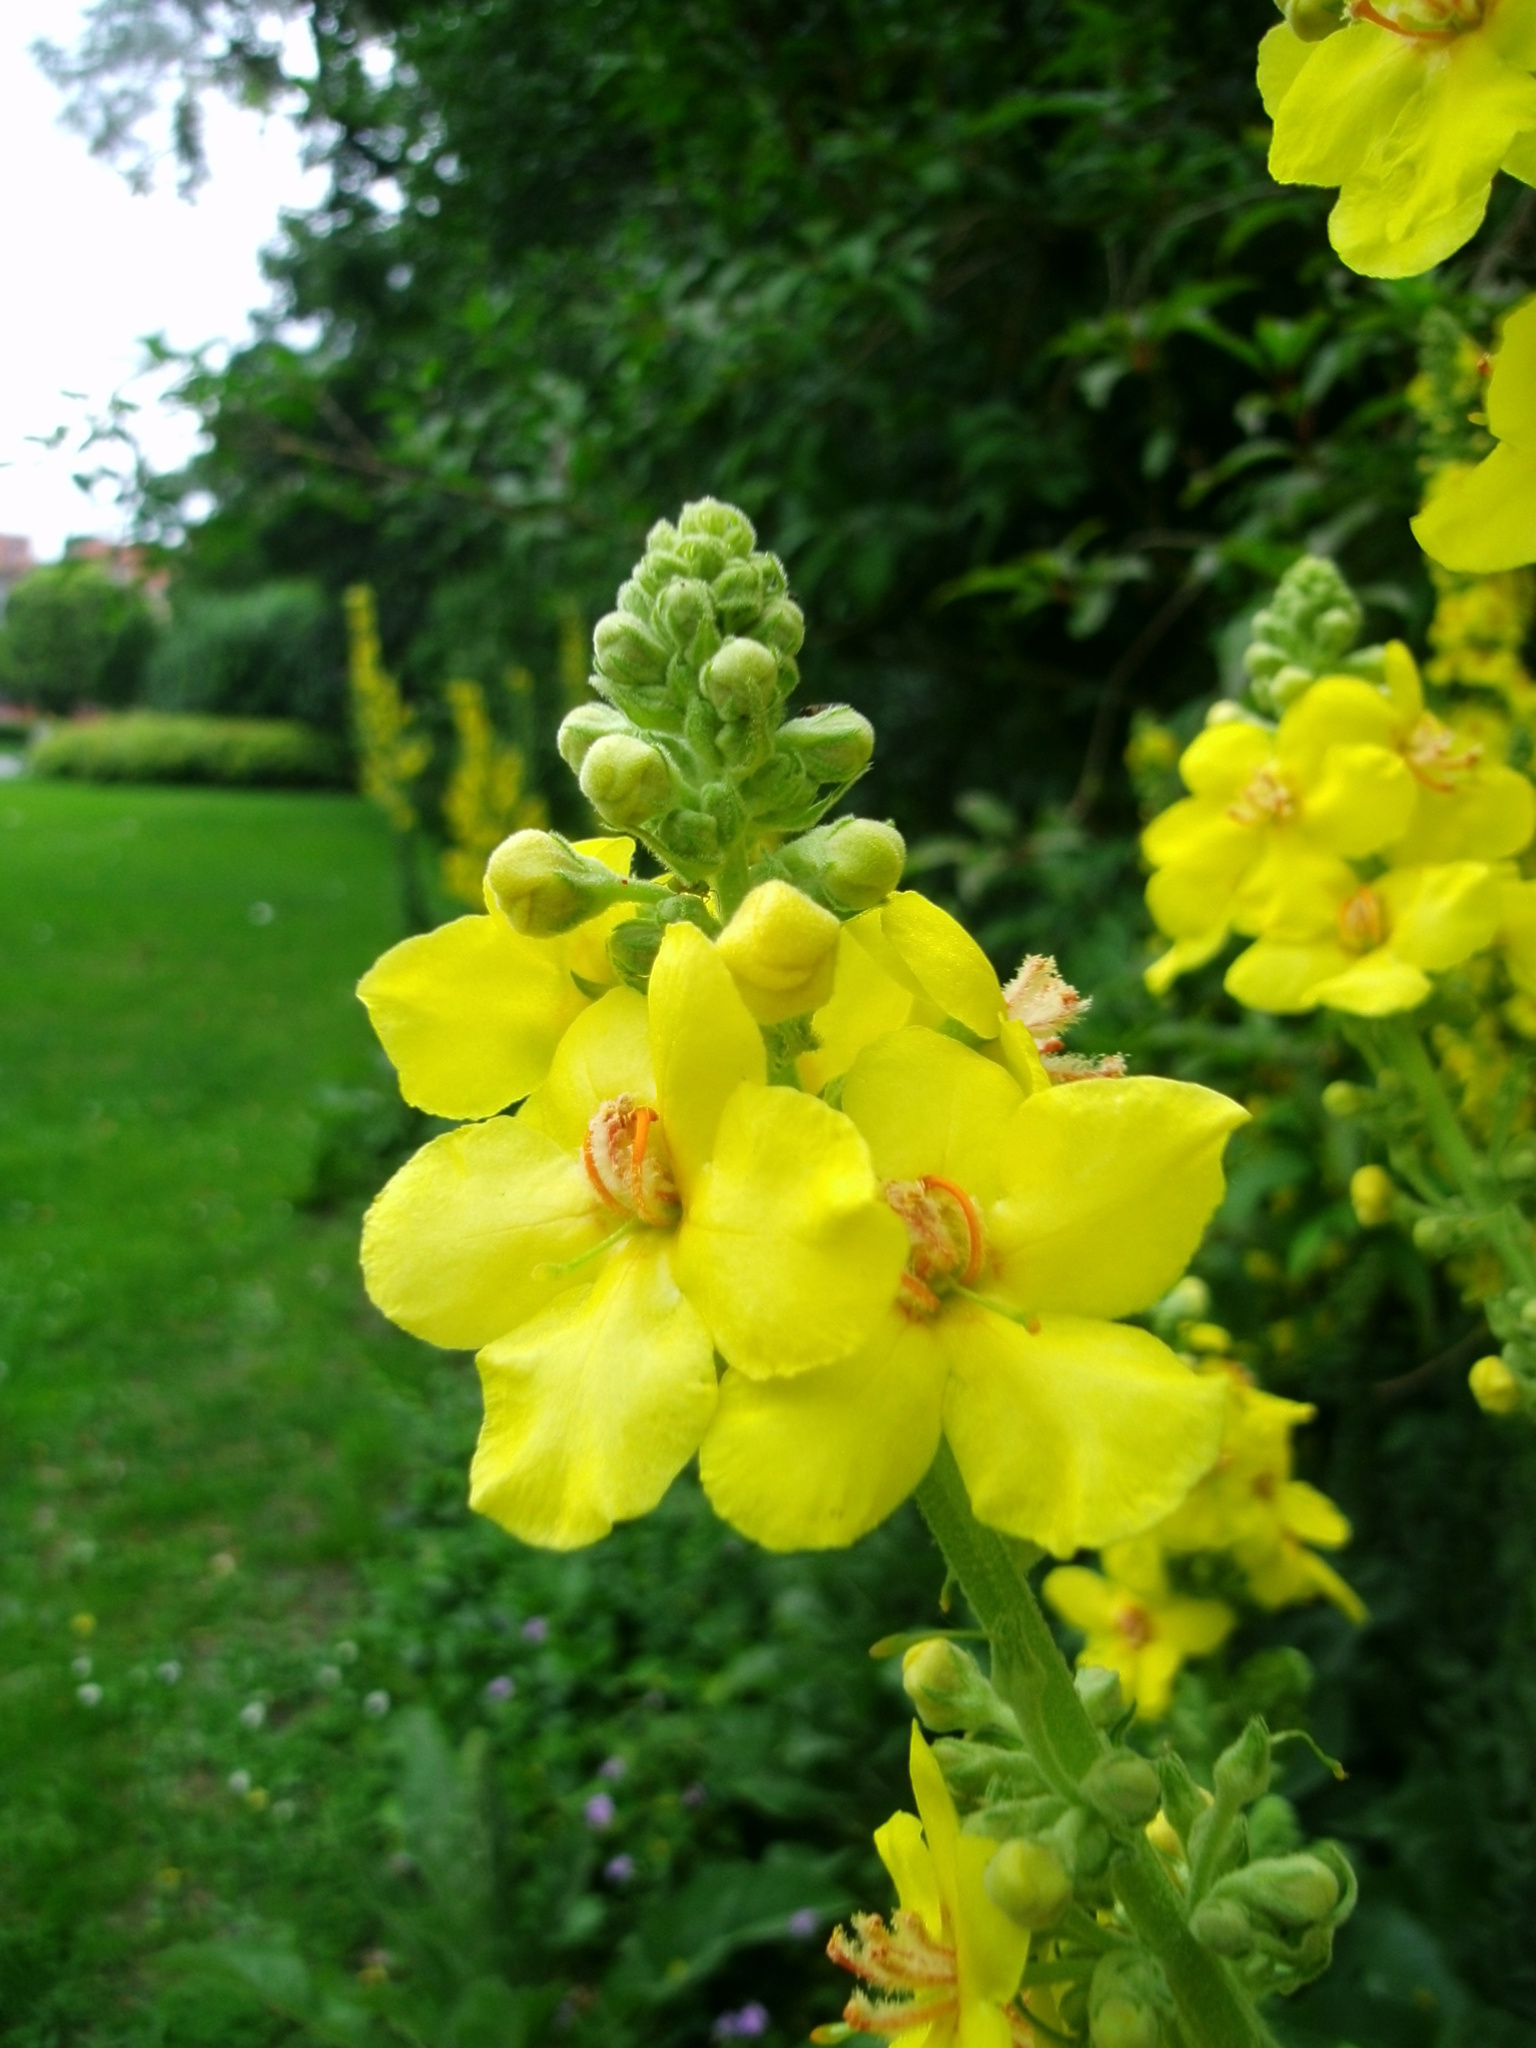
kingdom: Plantae
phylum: Tracheophyta
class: Magnoliopsida
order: Lamiales
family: Scrophulariaceae
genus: Verbascum
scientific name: Verbascum thapsus
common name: Common mullein
